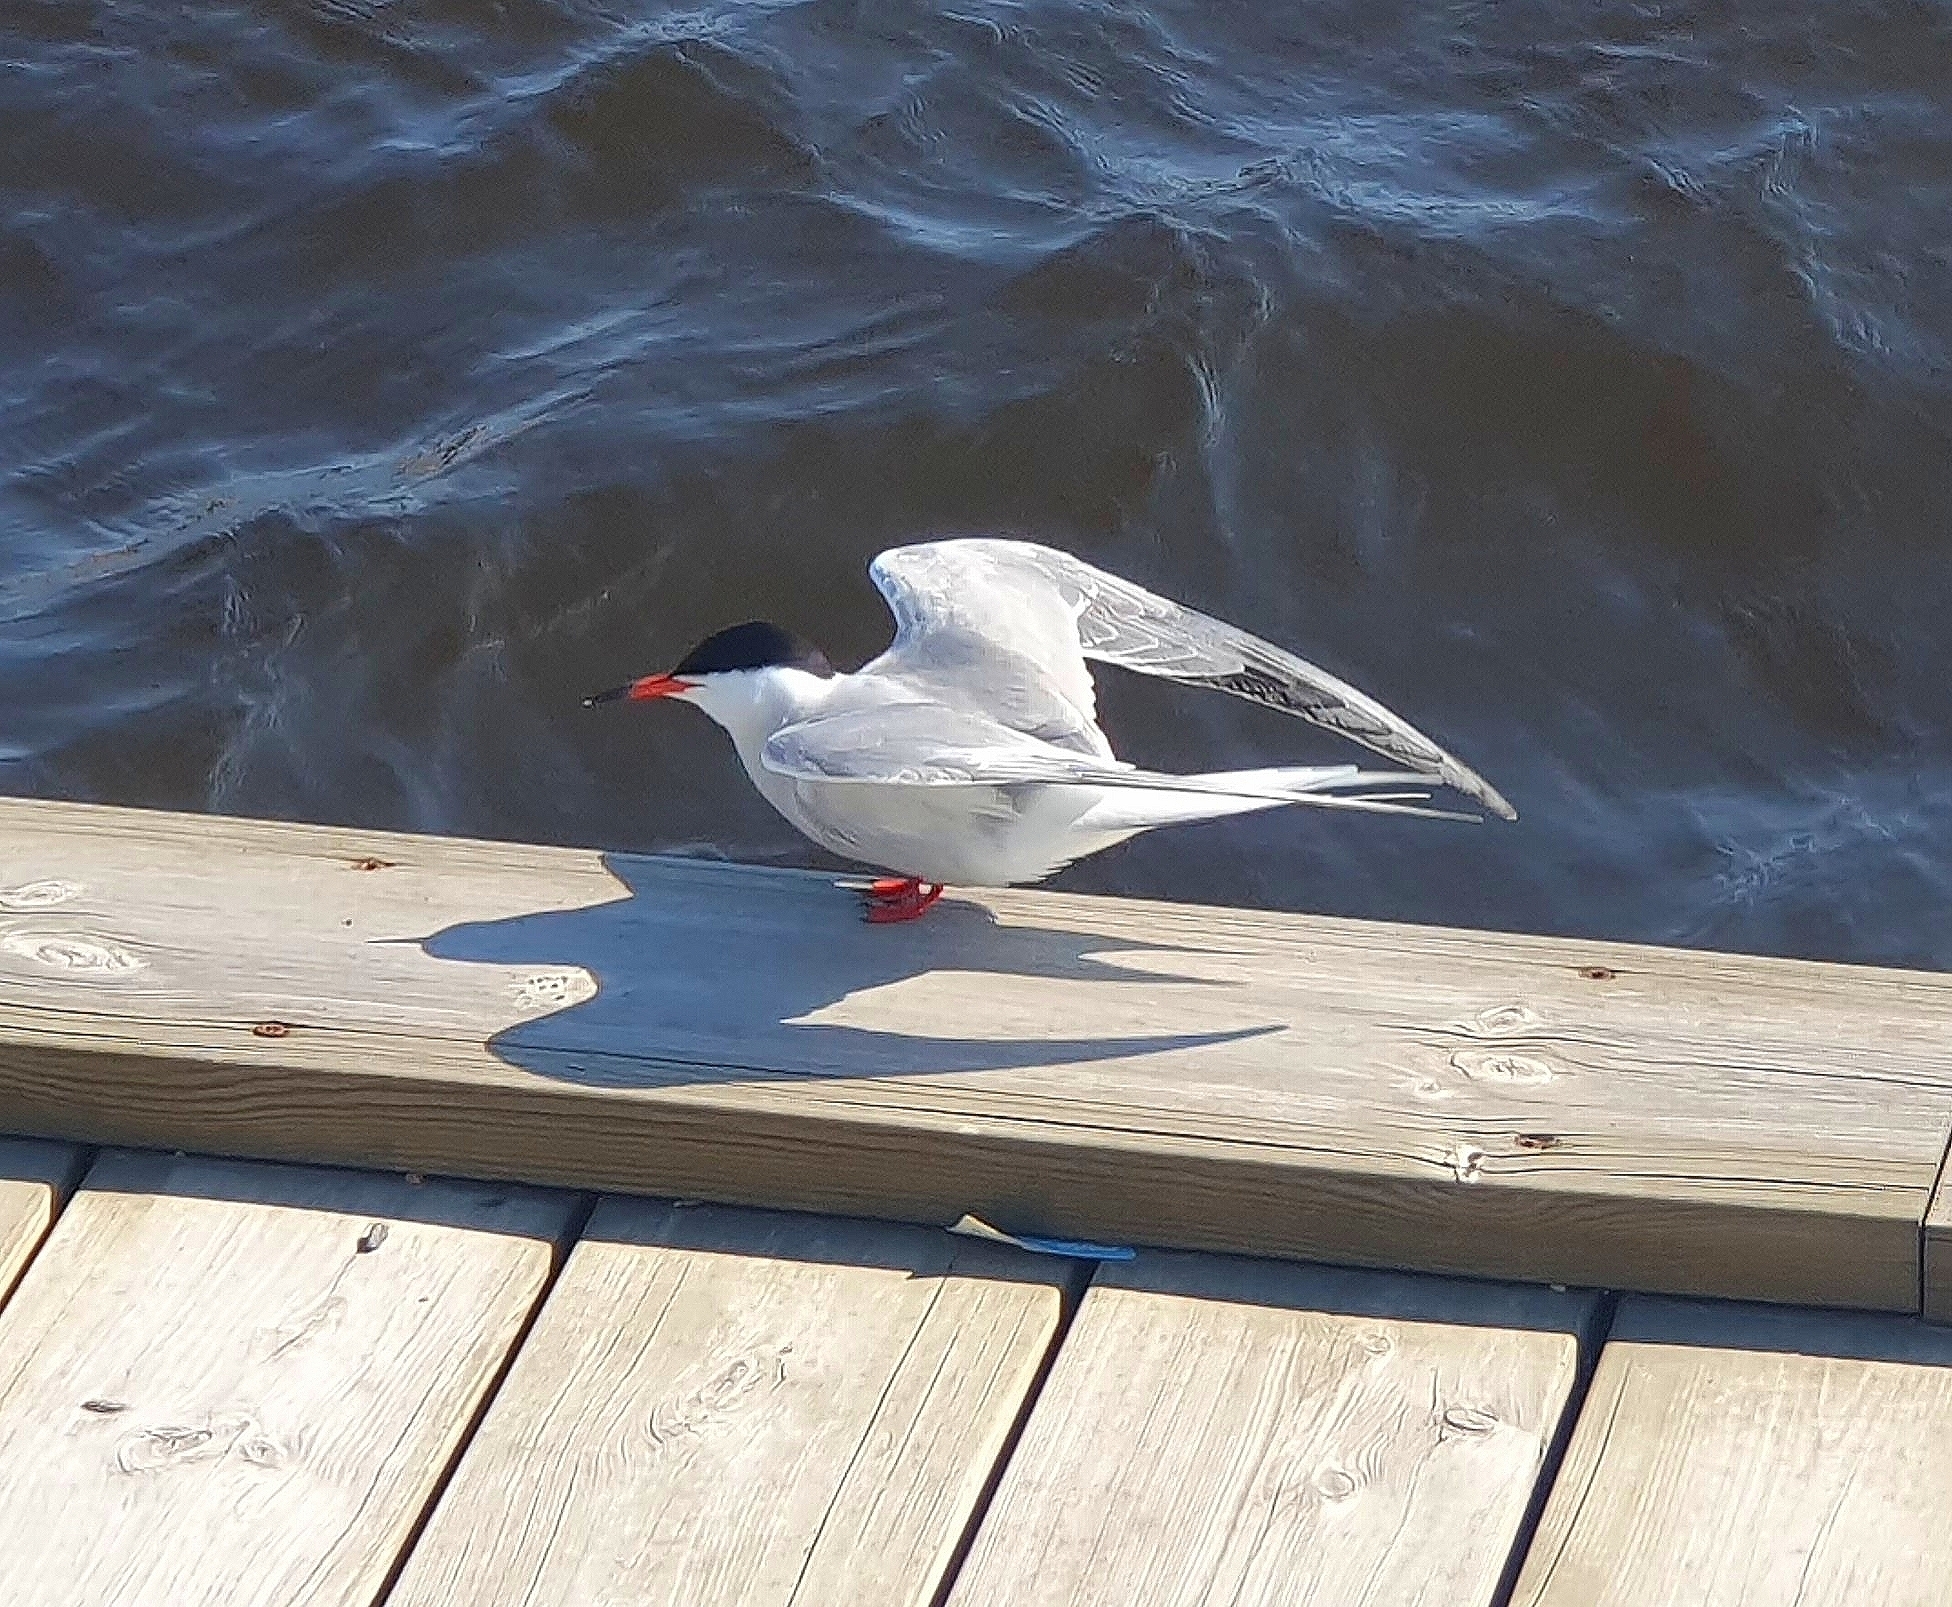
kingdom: Animalia
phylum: Chordata
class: Aves
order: Charadriiformes
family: Laridae
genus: Sterna
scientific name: Sterna hirundo
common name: Common tern
